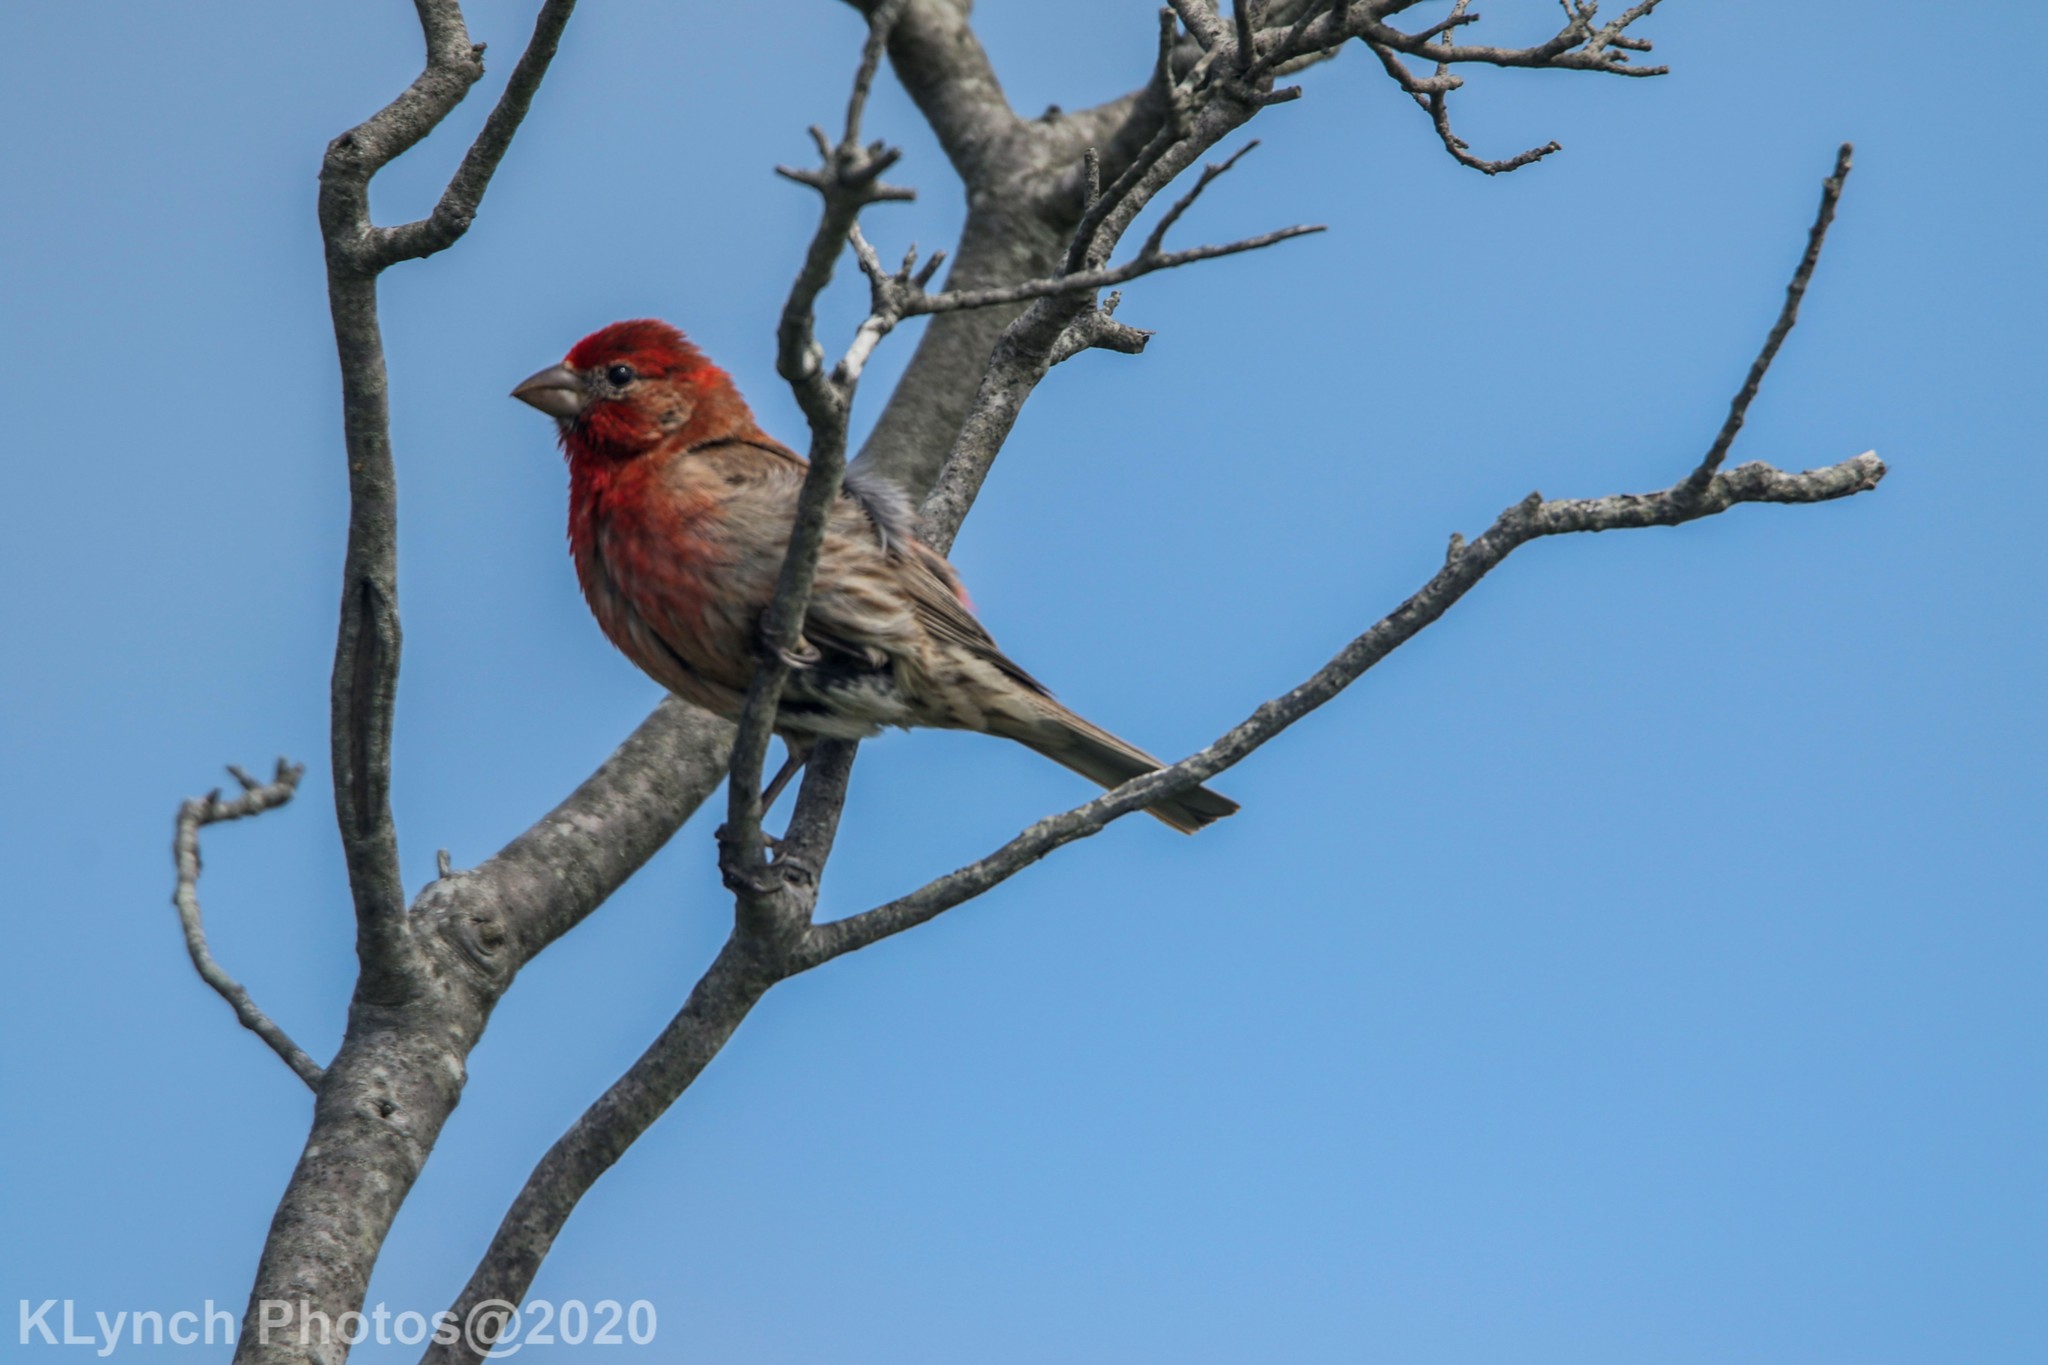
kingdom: Animalia
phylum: Chordata
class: Aves
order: Passeriformes
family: Fringillidae
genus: Haemorhous
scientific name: Haemorhous mexicanus
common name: House finch
